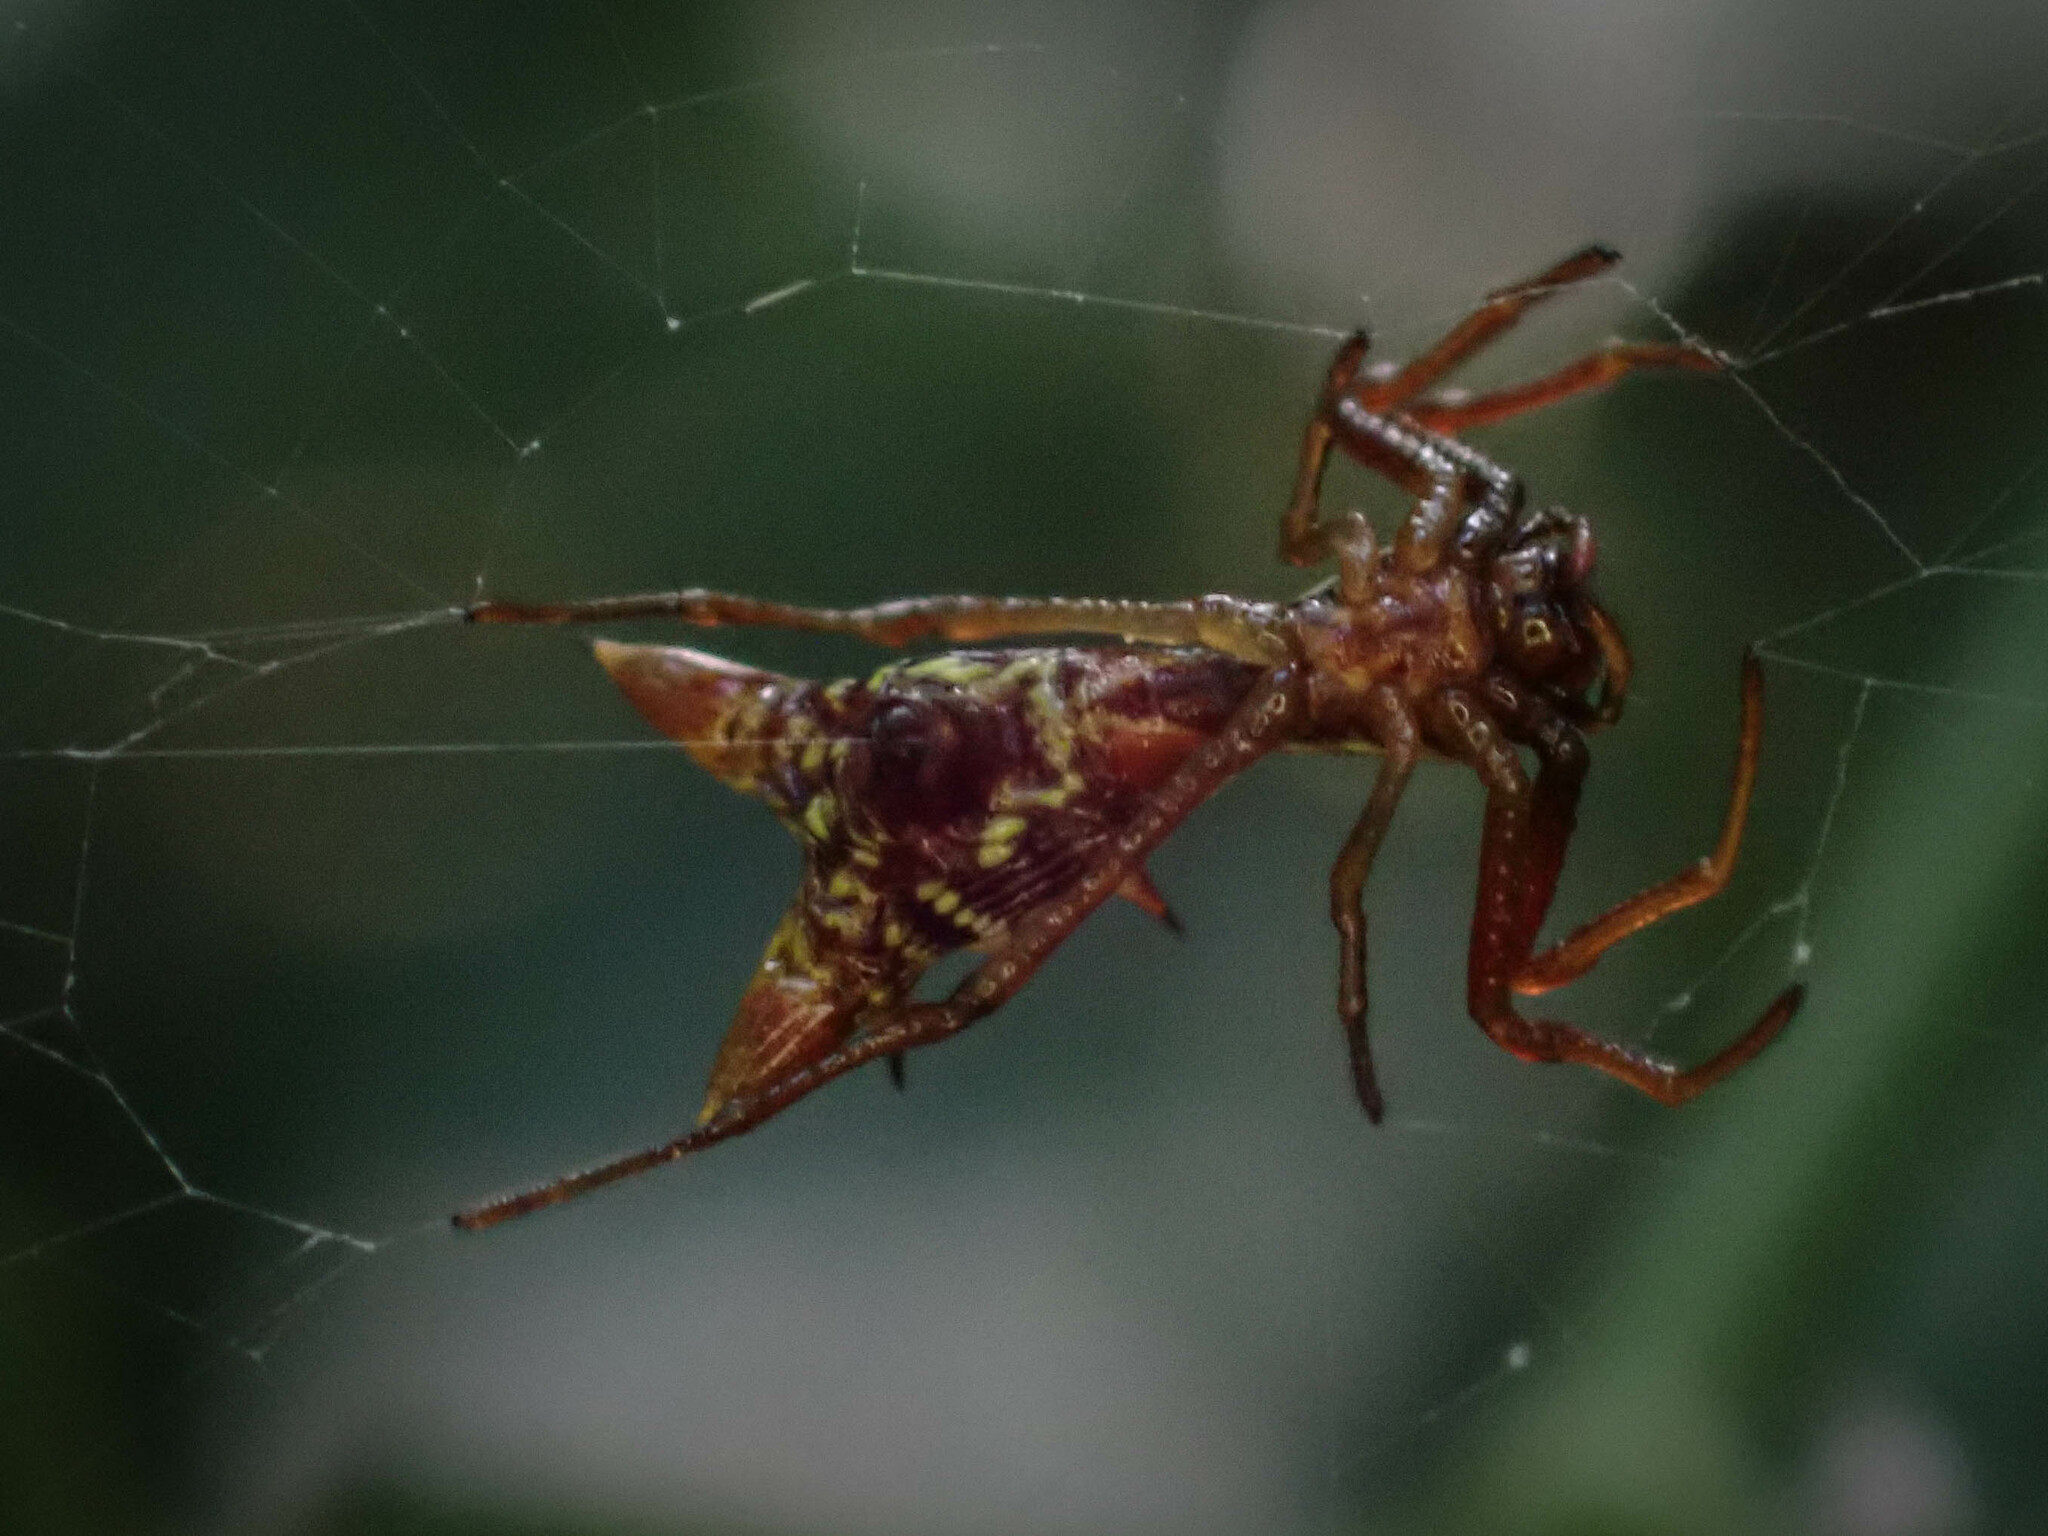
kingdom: Animalia
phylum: Arthropoda
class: Arachnida
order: Araneae
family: Araneidae
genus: Micrathena
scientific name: Micrathena sexspinosa
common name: Orb weavers
